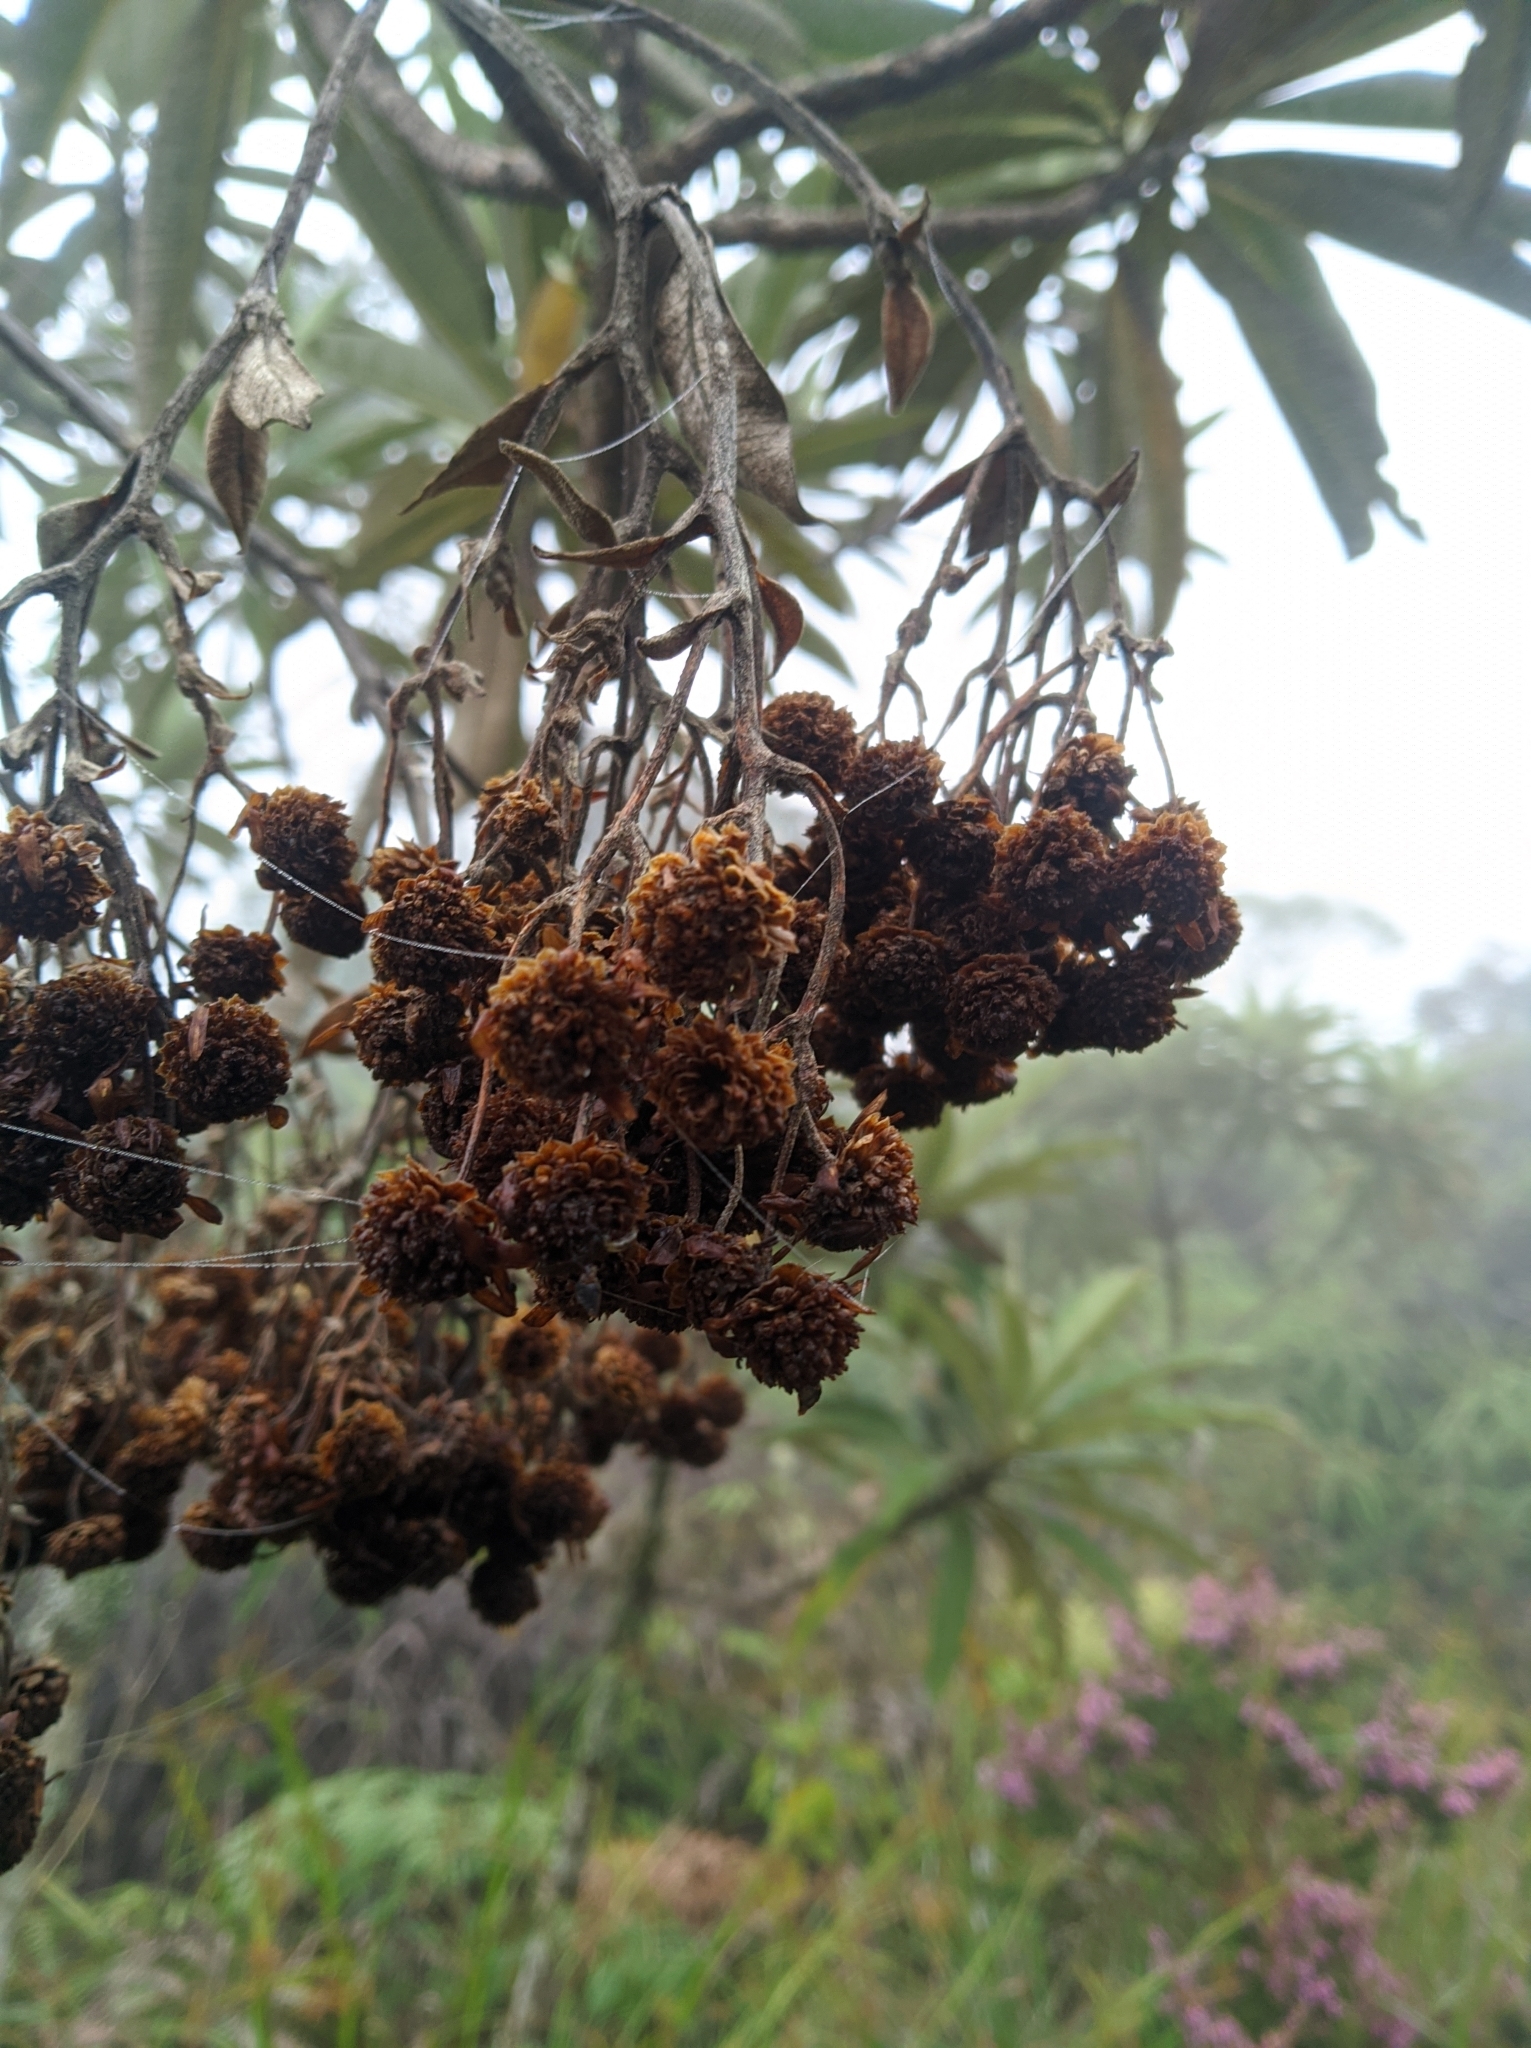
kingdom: Plantae
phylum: Tracheophyta
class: Magnoliopsida
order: Asterales
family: Asteraceae
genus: Espeletia
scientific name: Espeletia neriifolia
